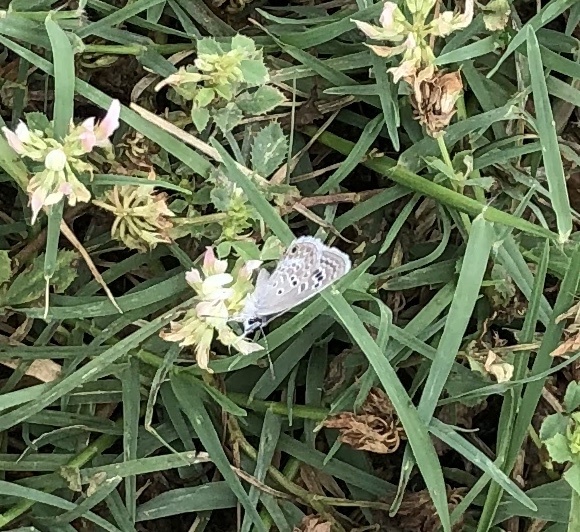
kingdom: Animalia
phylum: Arthropoda
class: Insecta
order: Lepidoptera
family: Lycaenidae
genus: Echinargus
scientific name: Echinargus isola
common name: Reakirt's blue
